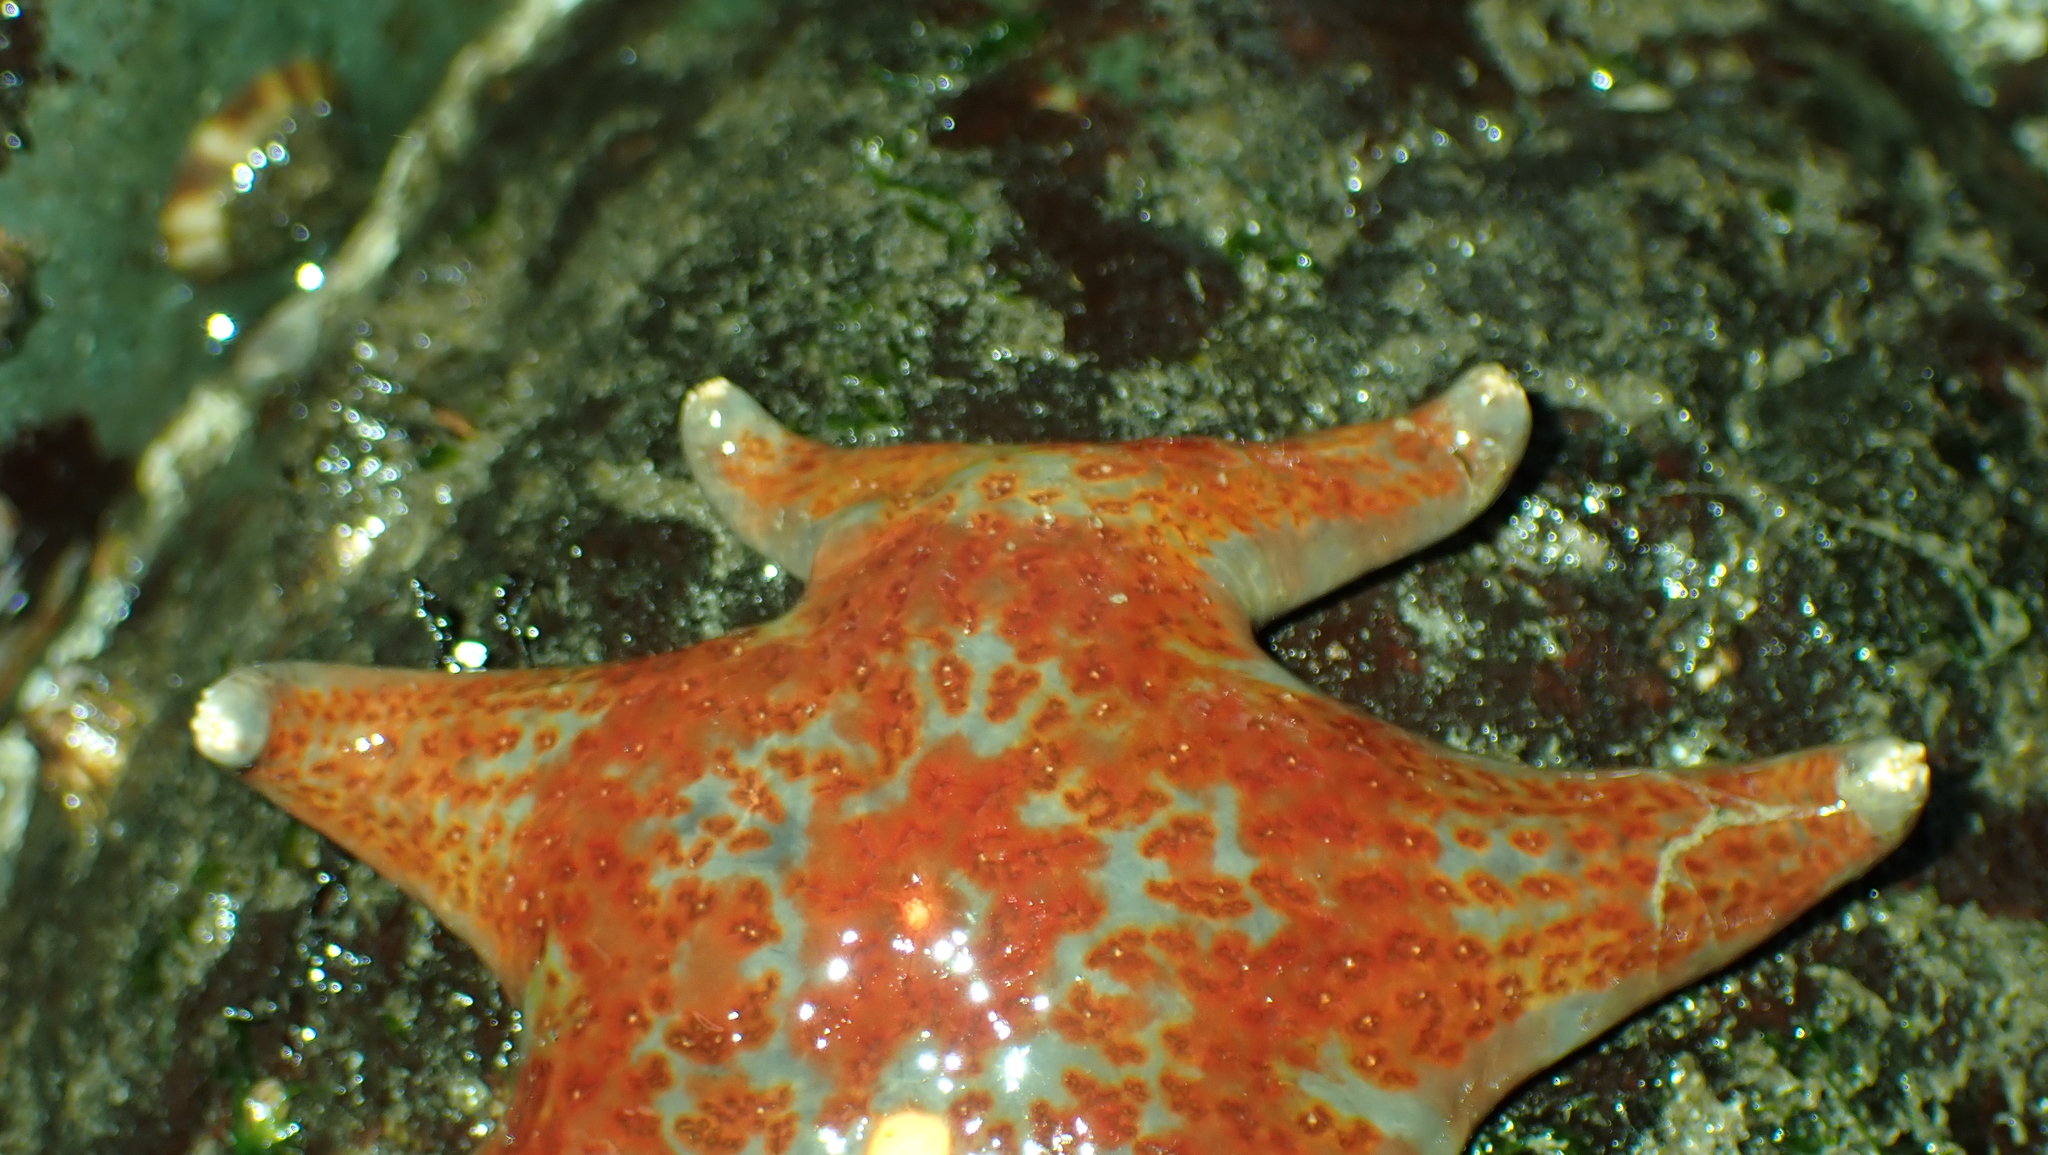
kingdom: Animalia
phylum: Echinodermata
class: Asteroidea
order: Valvatida
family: Asteropseidae
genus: Dermasterias
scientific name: Dermasterias imbricata
